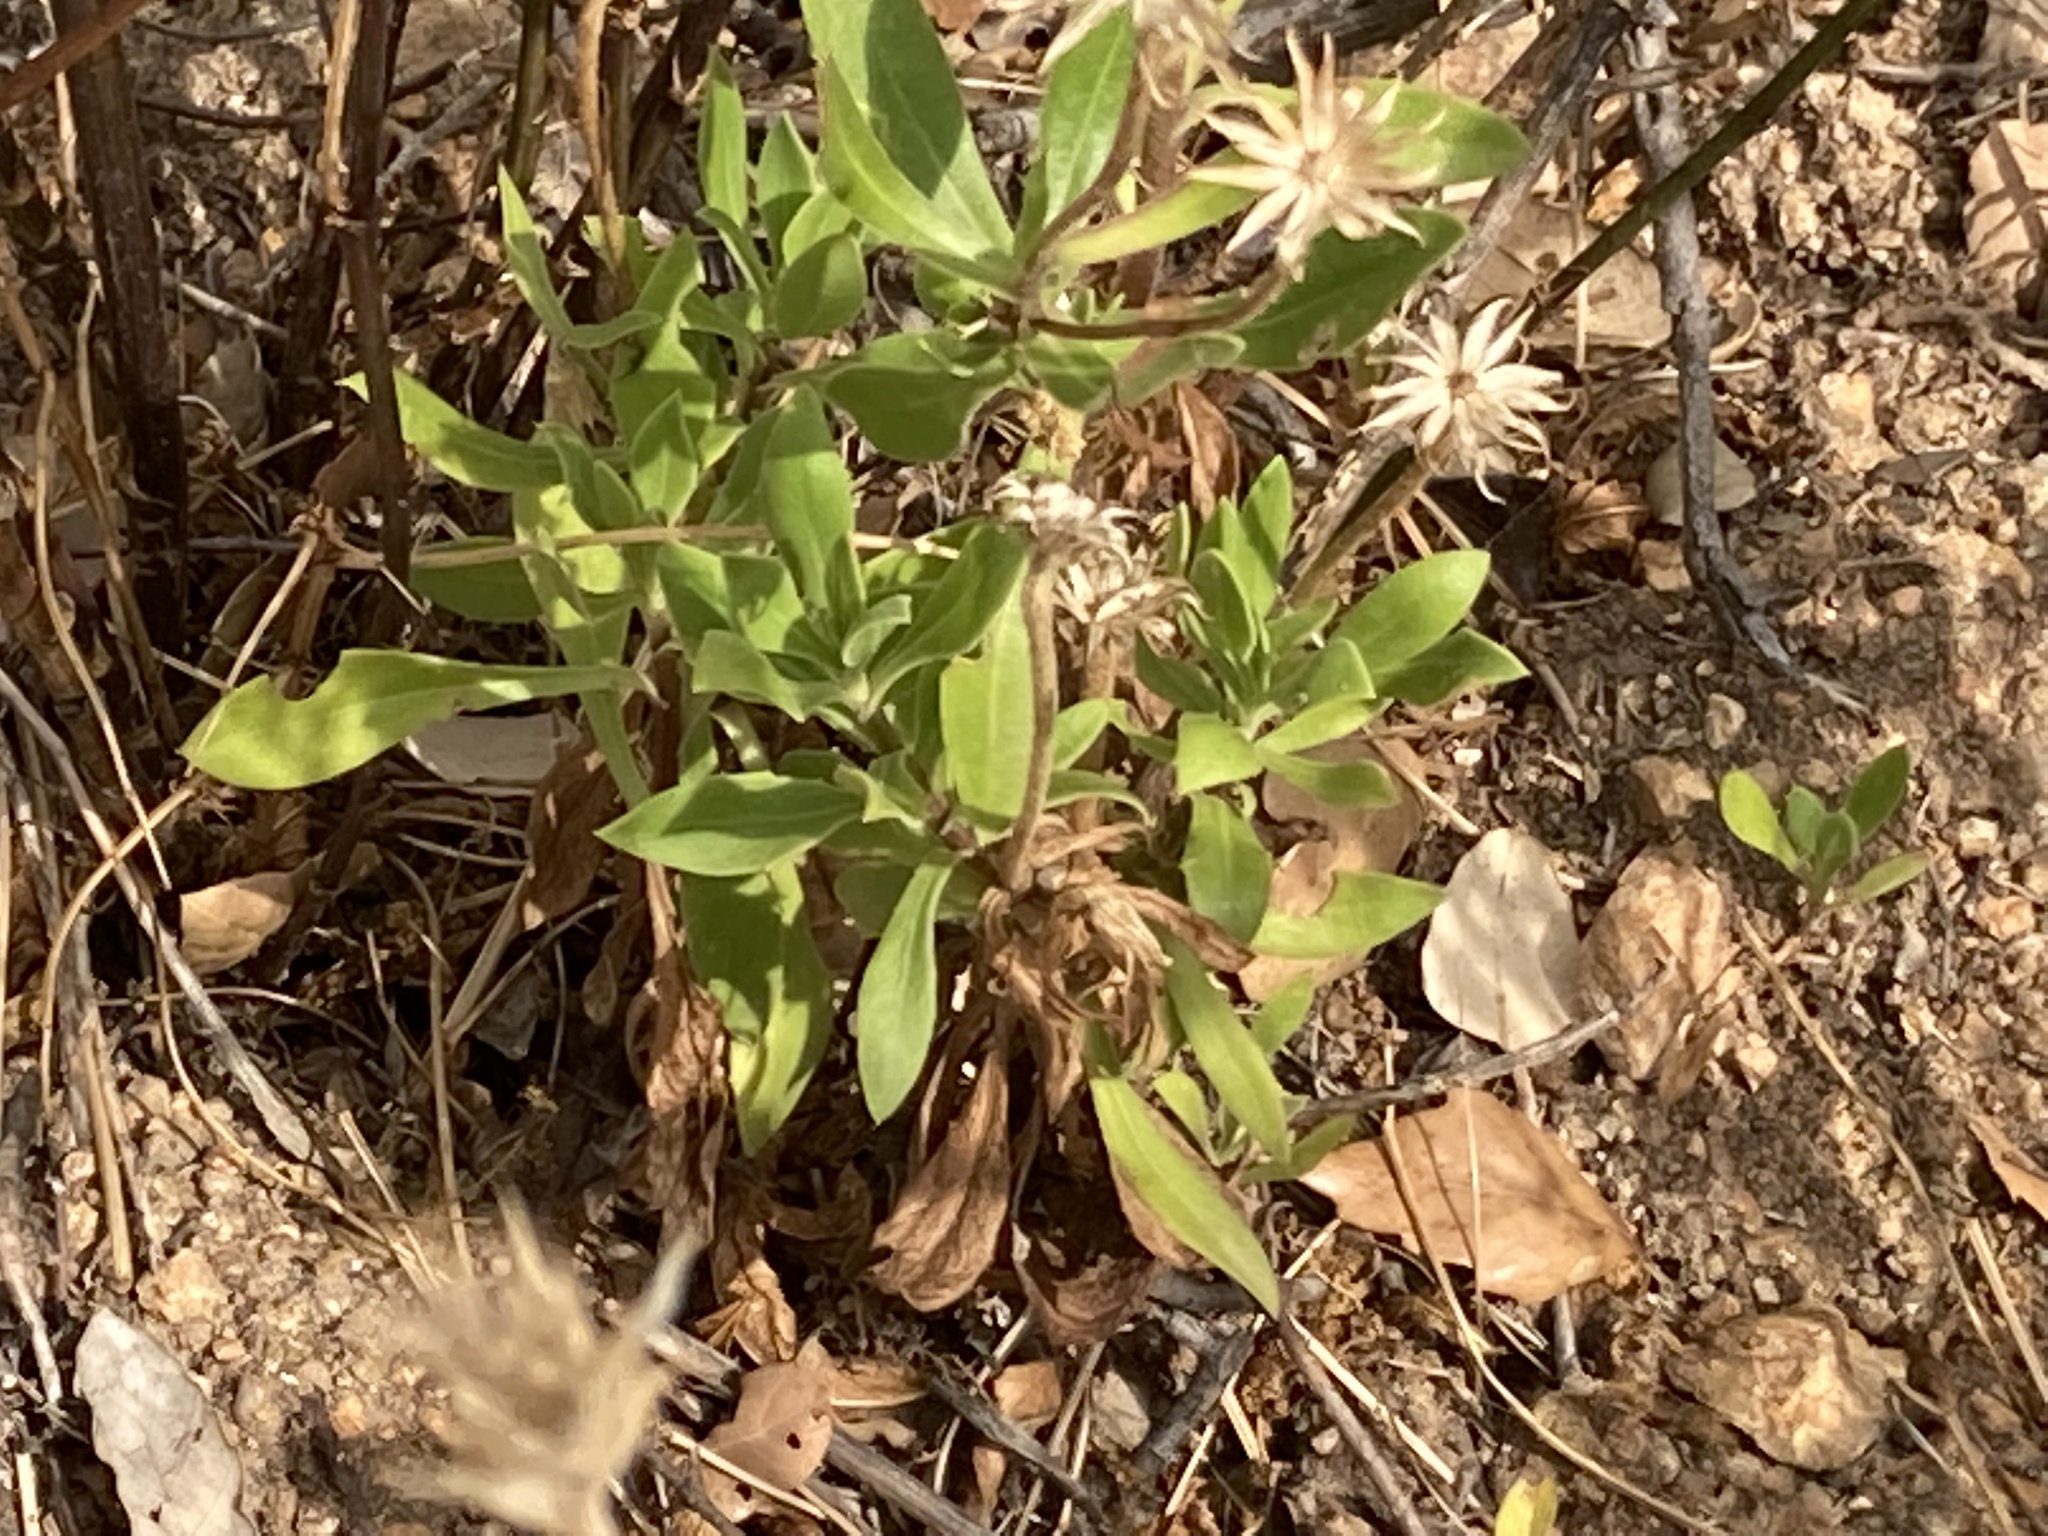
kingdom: Plantae
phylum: Tracheophyta
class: Magnoliopsida
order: Asterales
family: Asteraceae
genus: Dimorphotheca
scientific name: Dimorphotheca ecklonis
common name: Vanstaden's river daisy
